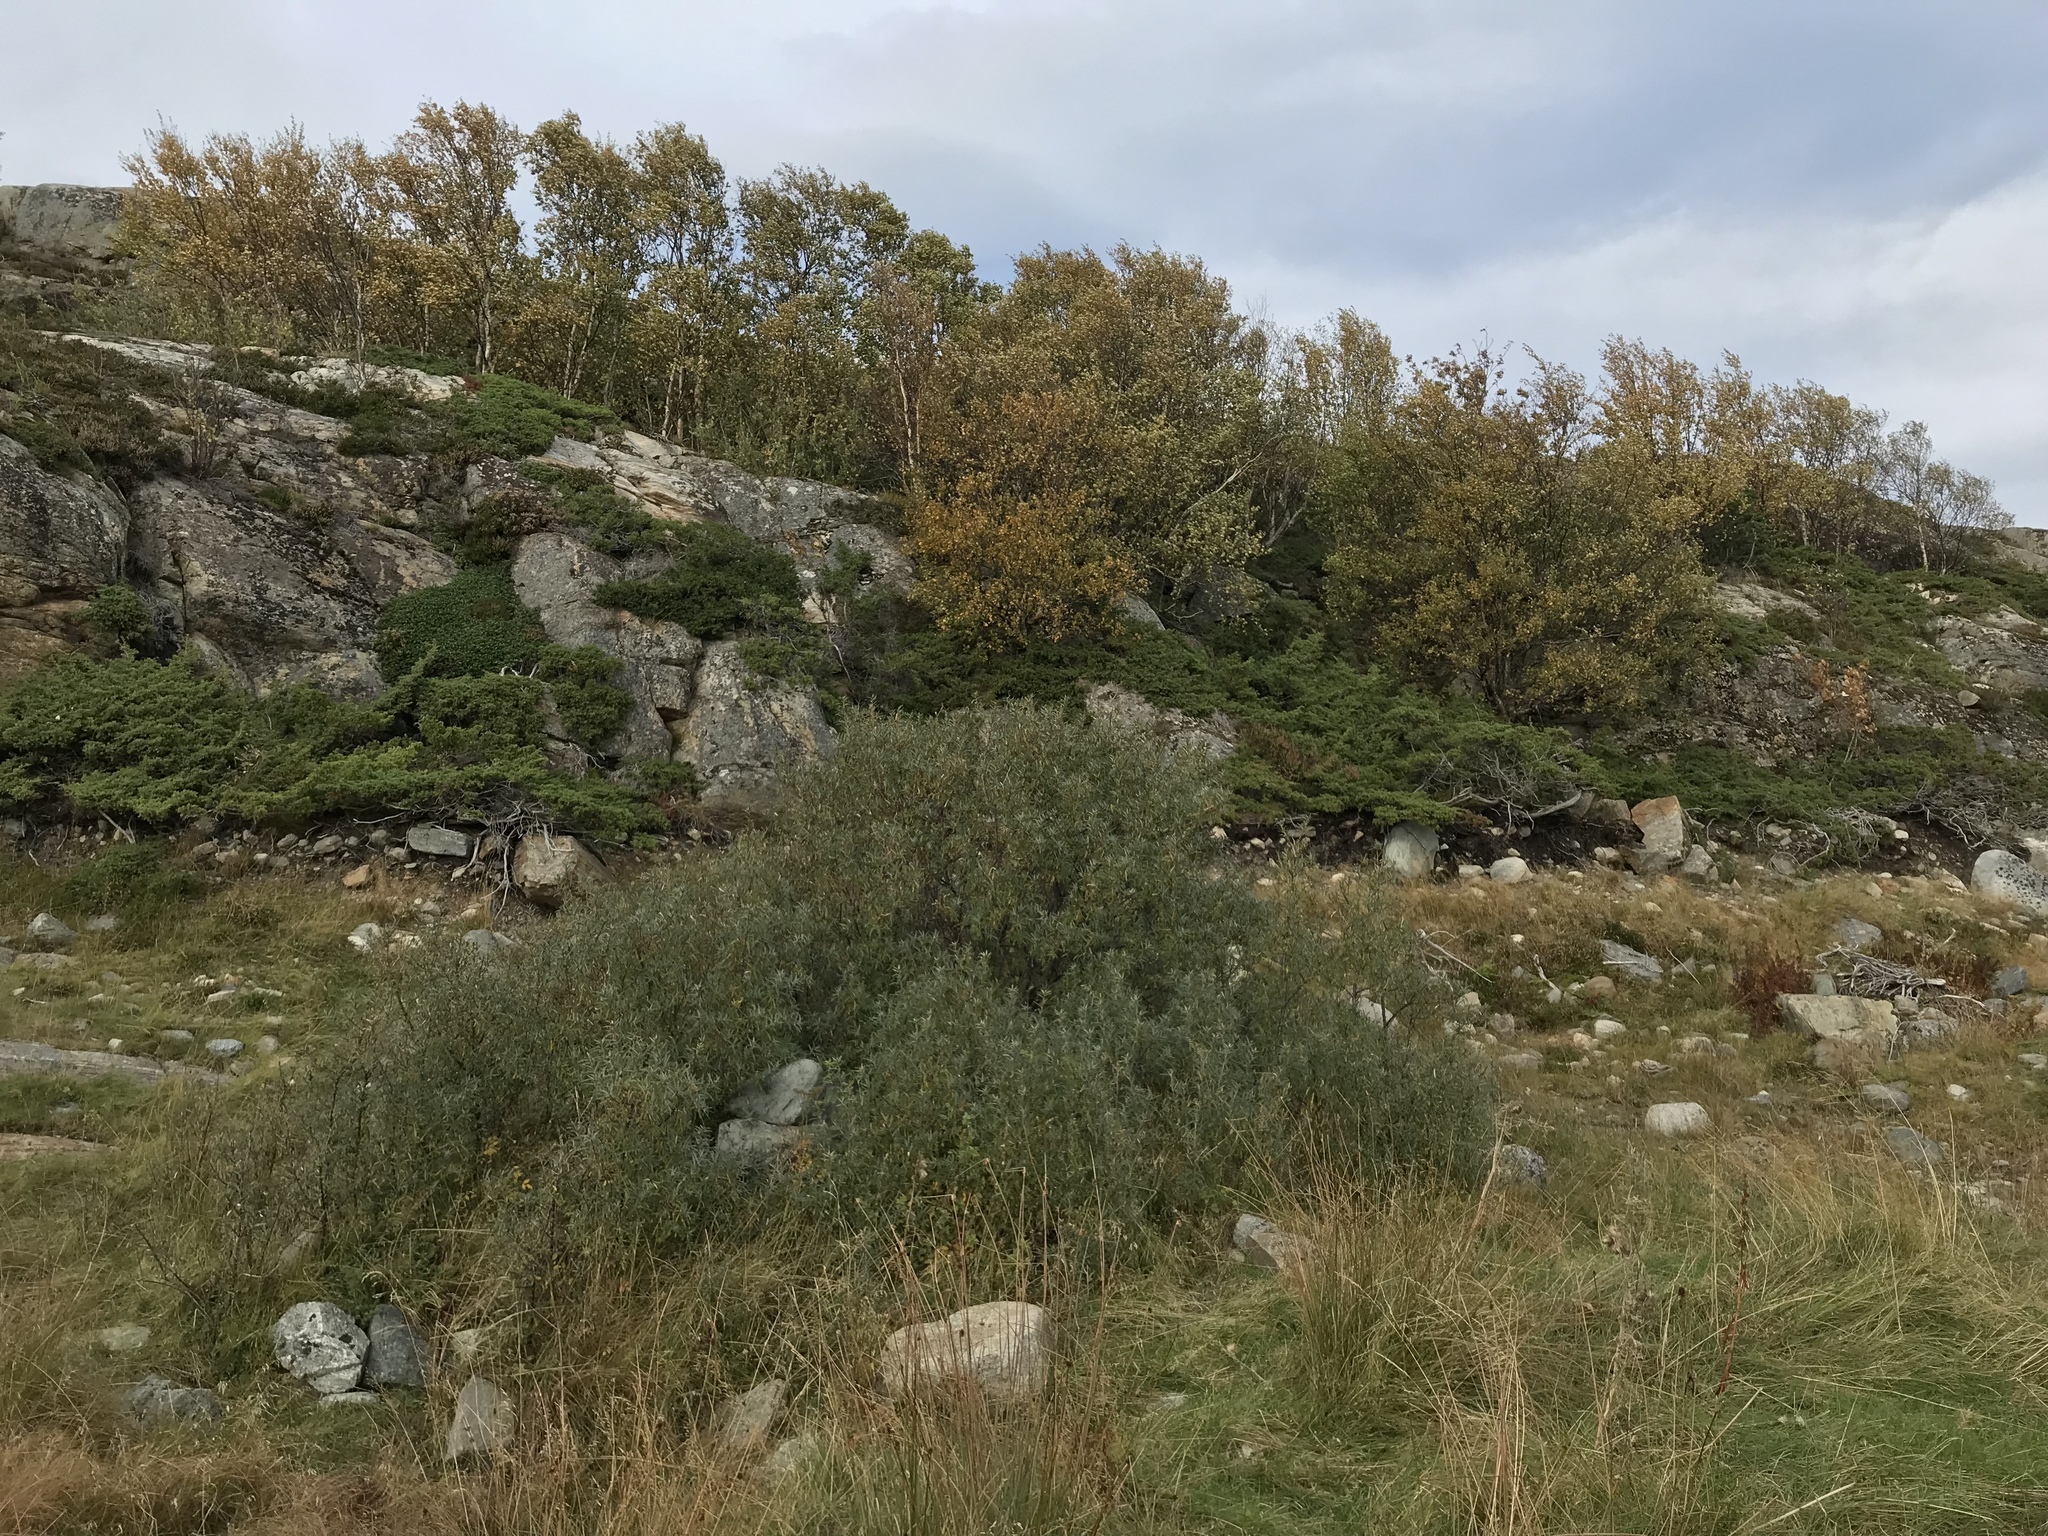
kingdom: Plantae
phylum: Tracheophyta
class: Magnoliopsida
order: Rosales
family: Elaeagnaceae
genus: Hippophae
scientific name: Hippophae rhamnoides
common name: Sea-buckthorn
